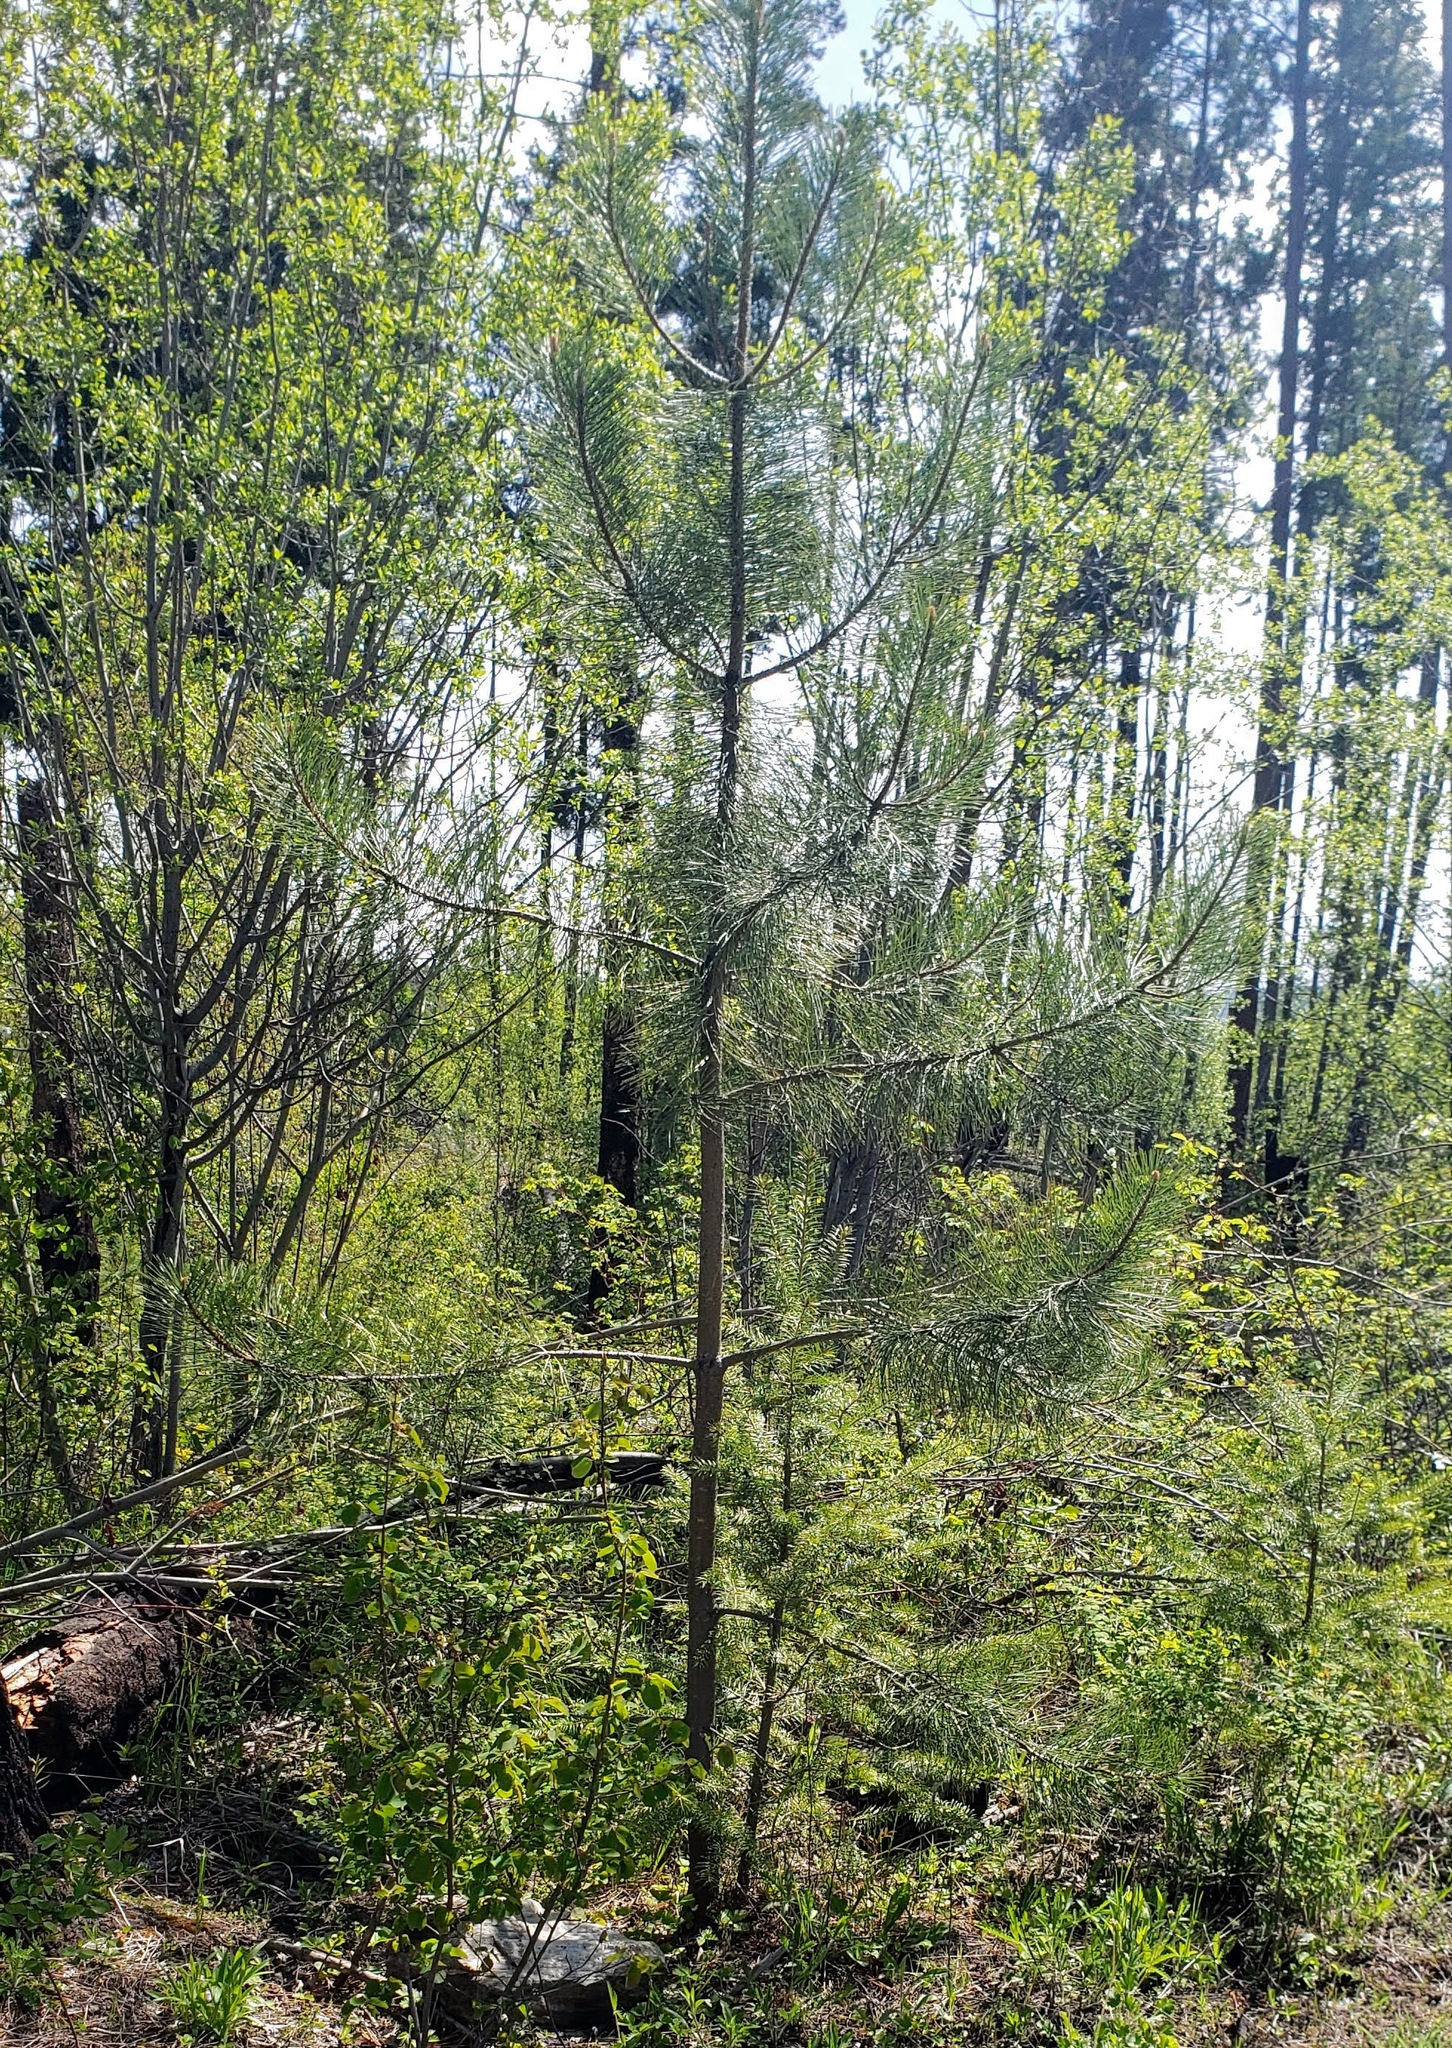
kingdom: Plantae
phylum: Tracheophyta
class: Pinopsida
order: Pinales
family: Pinaceae
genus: Pinus
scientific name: Pinus ponderosa
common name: Western yellow-pine
